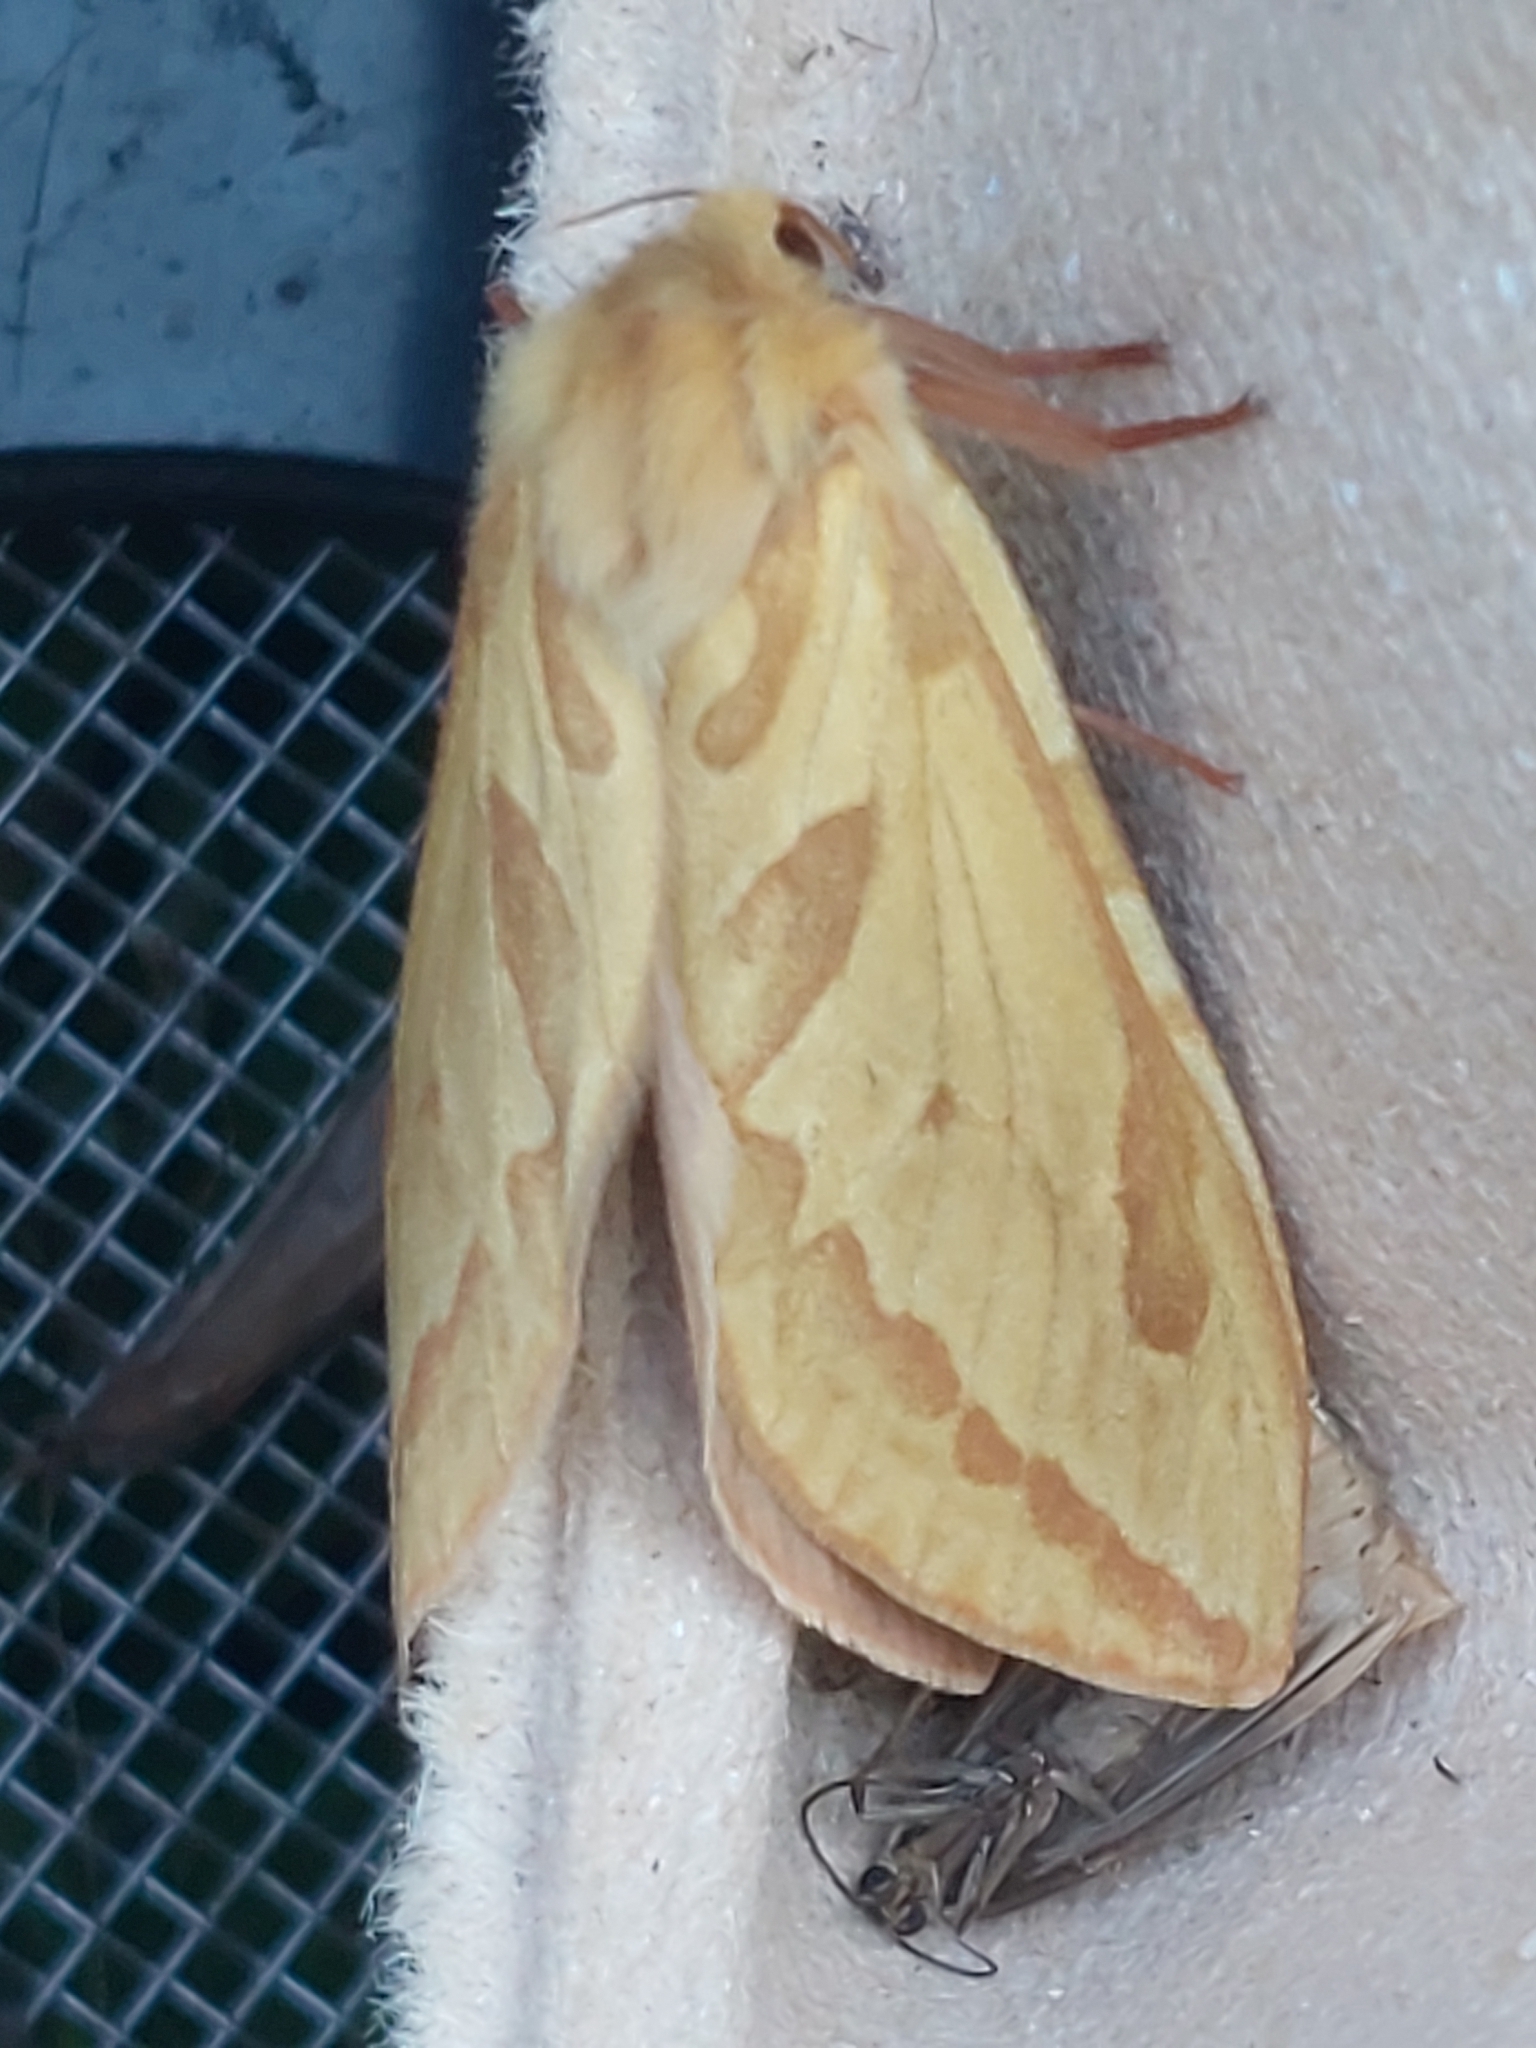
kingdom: Animalia
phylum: Arthropoda
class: Insecta
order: Lepidoptera
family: Hepialidae
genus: Hepialus
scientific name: Hepialus humuli
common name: Ghost moth
